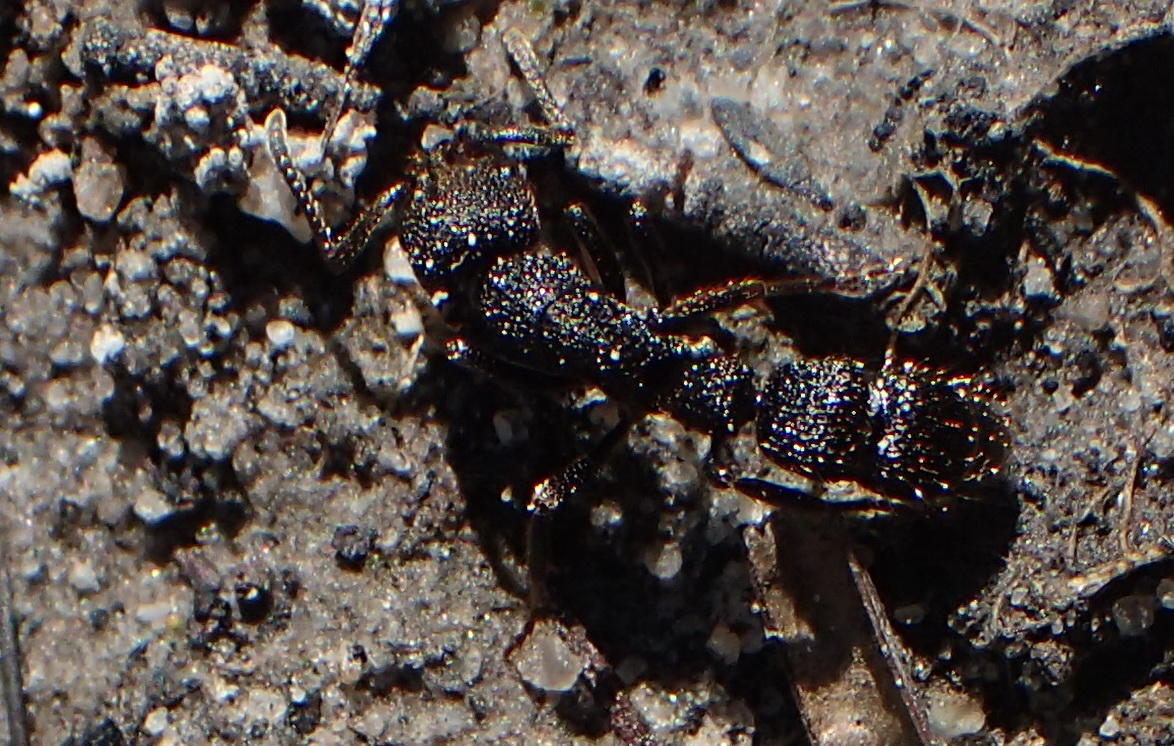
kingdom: Animalia
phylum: Arthropoda
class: Insecta
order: Hymenoptera
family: Formicidae
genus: Bothroponera
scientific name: Bothroponera cariosa
